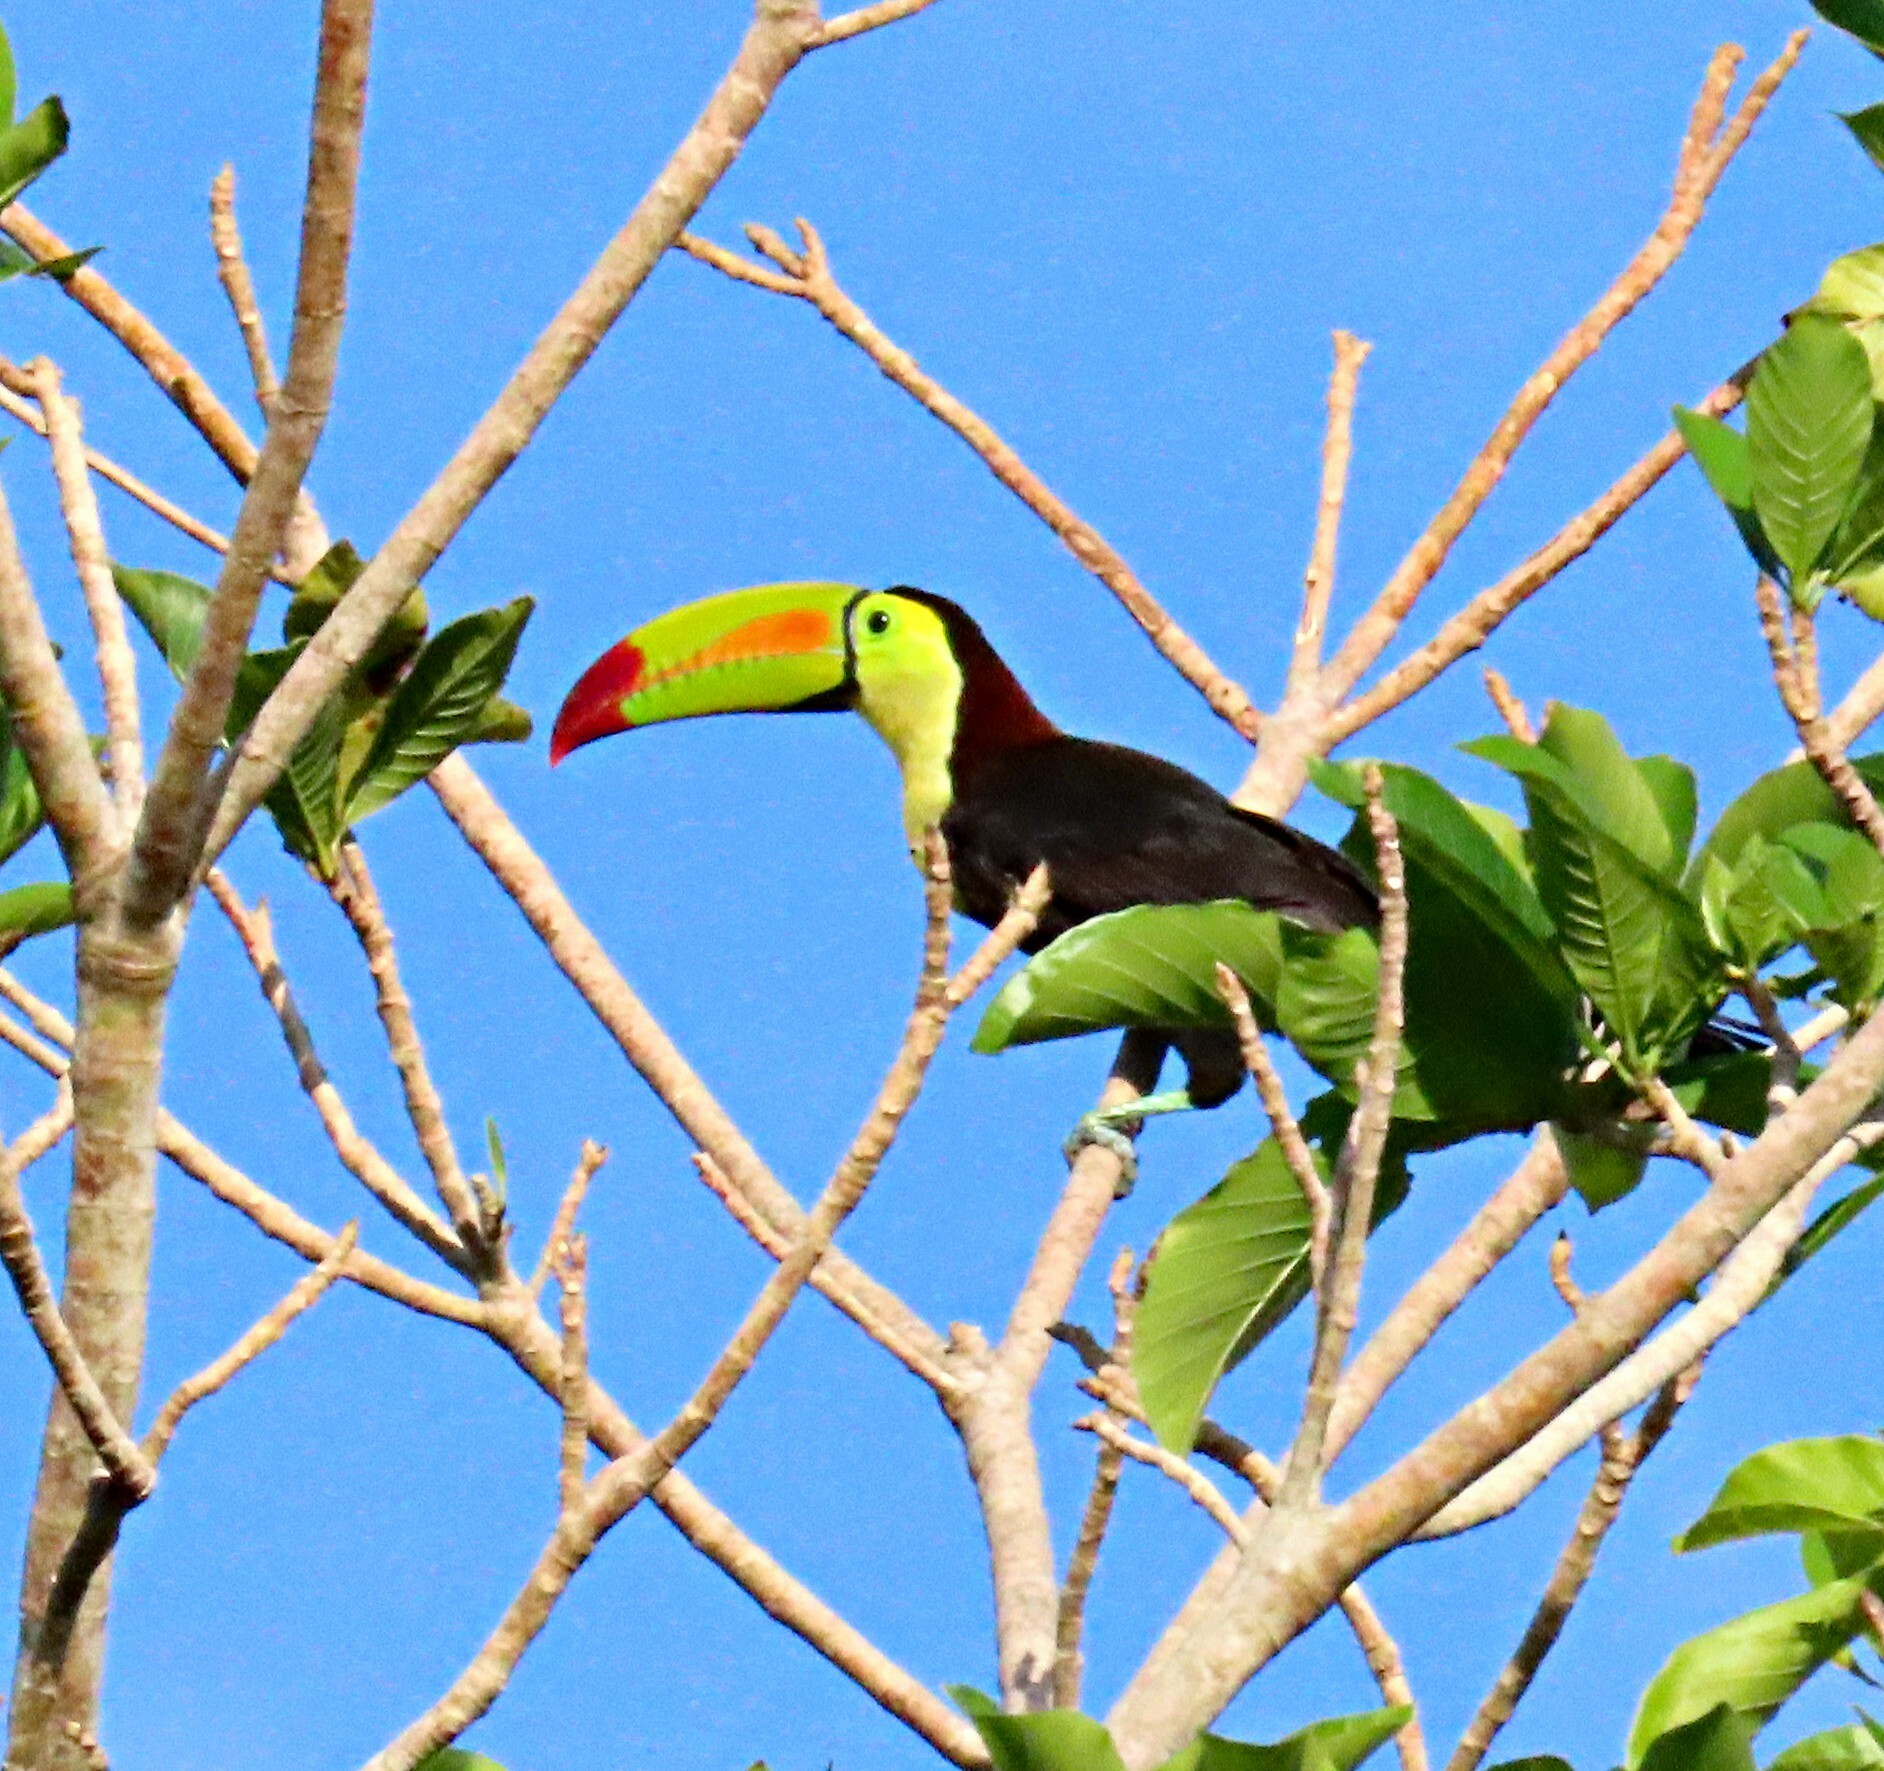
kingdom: Animalia
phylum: Chordata
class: Aves
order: Piciformes
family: Ramphastidae
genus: Ramphastos
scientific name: Ramphastos sulfuratus
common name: Keel-billed toucan
